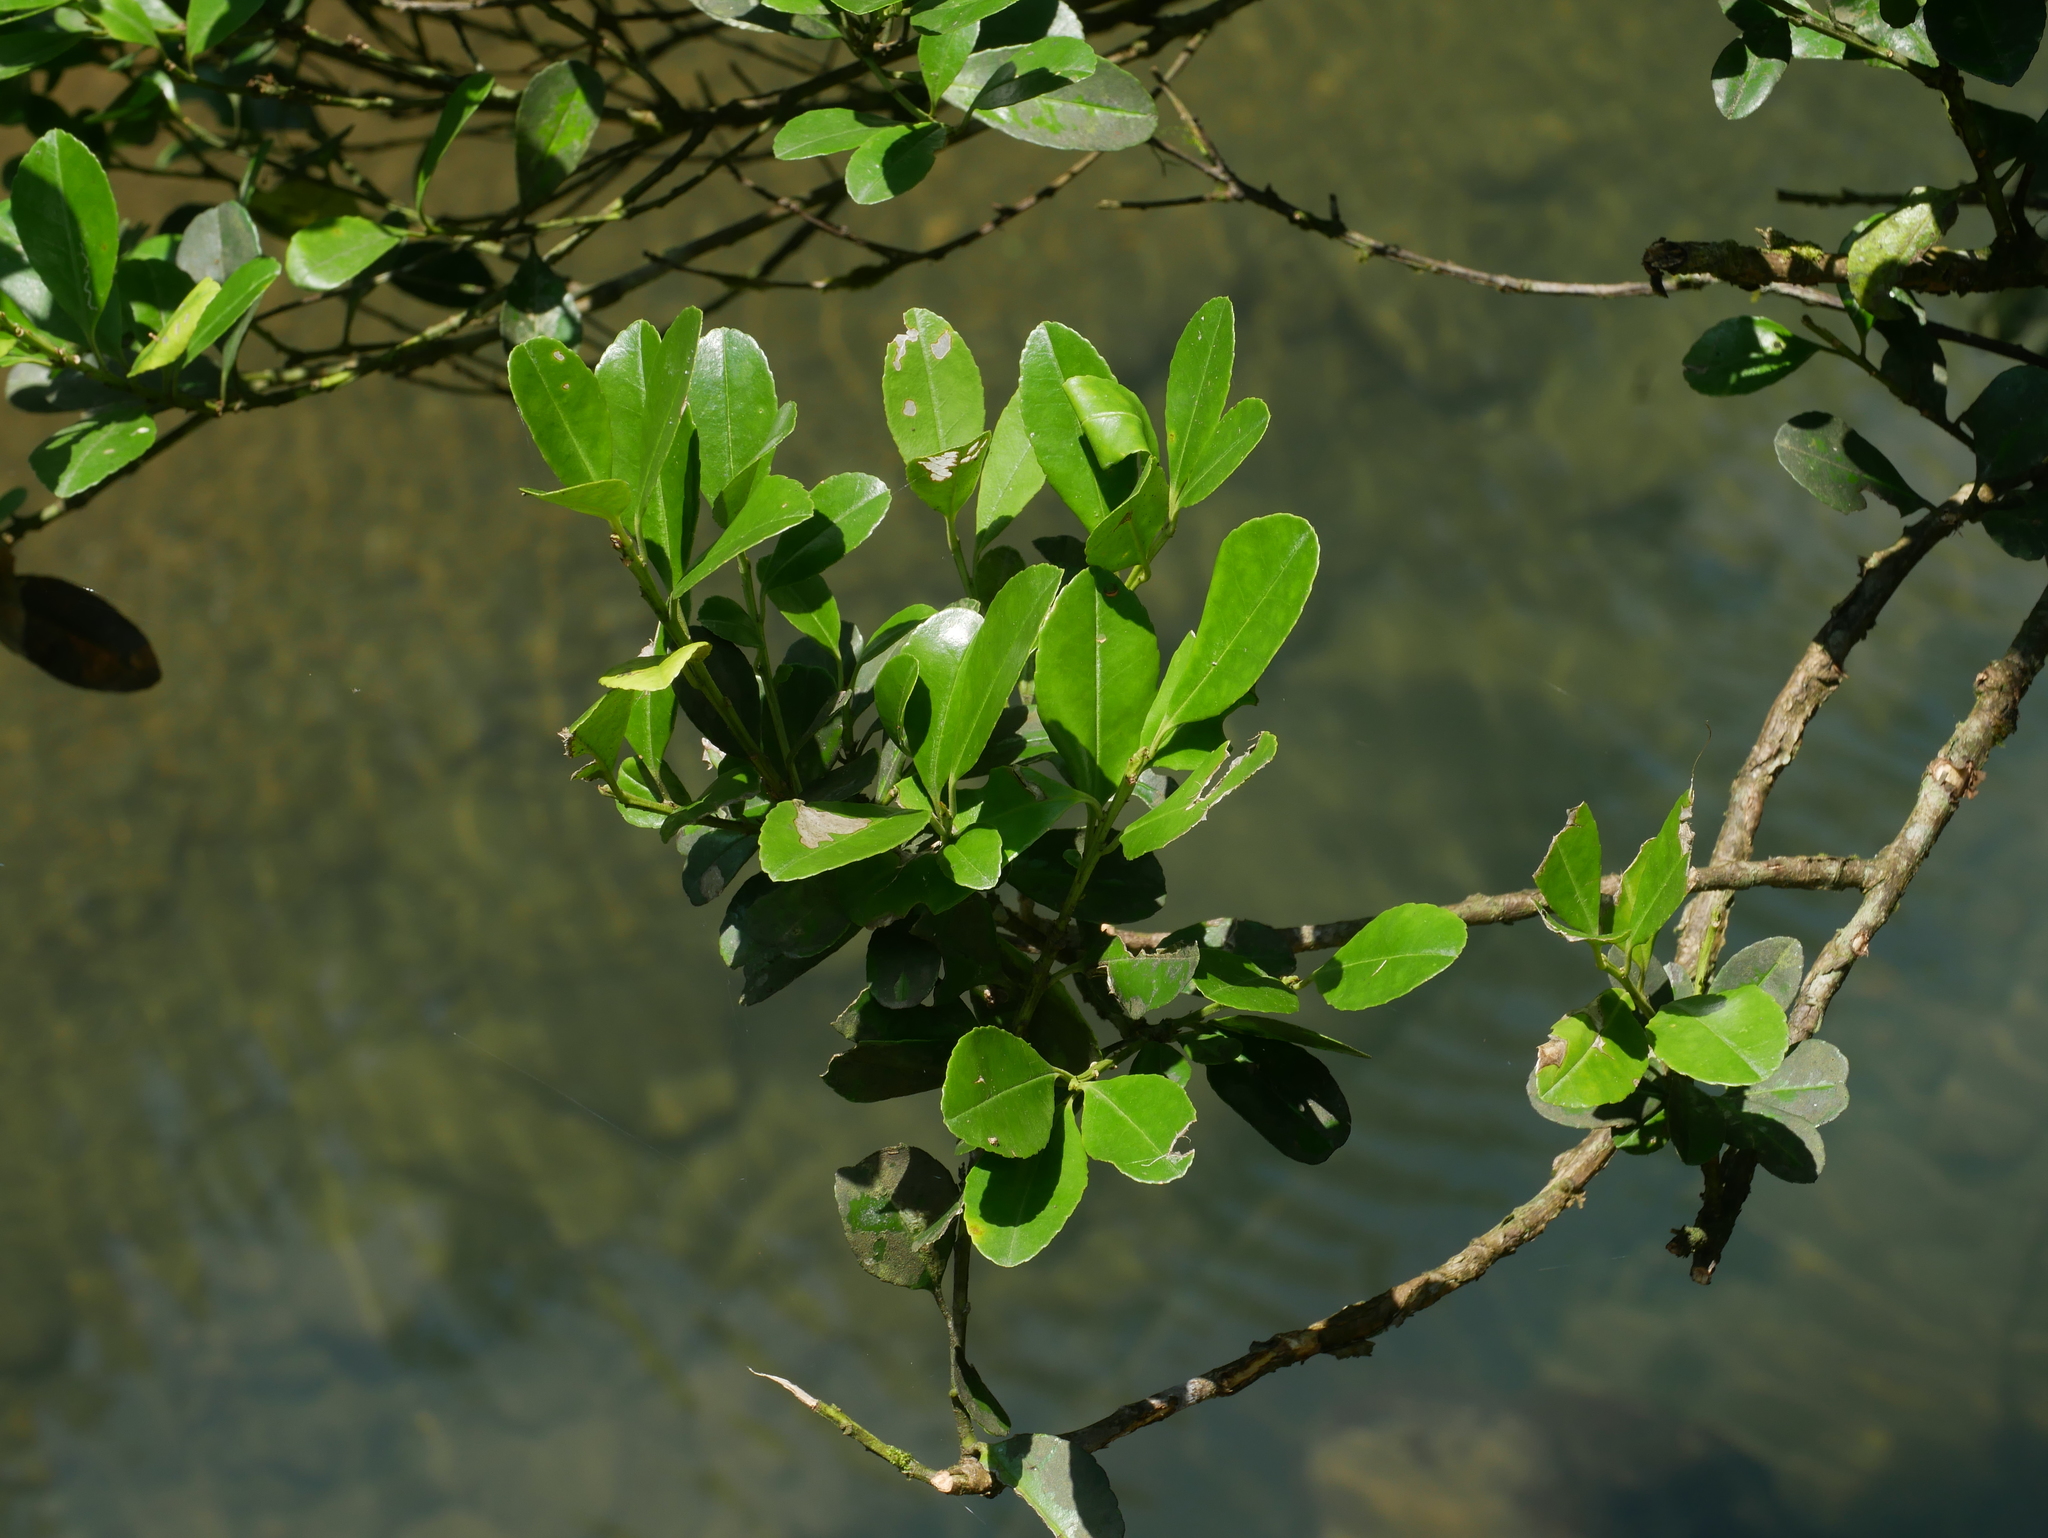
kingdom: Plantae
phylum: Tracheophyta
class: Magnoliopsida
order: Aquifoliales
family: Aquifoliaceae
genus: Ilex
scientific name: Ilex maximowicziana
